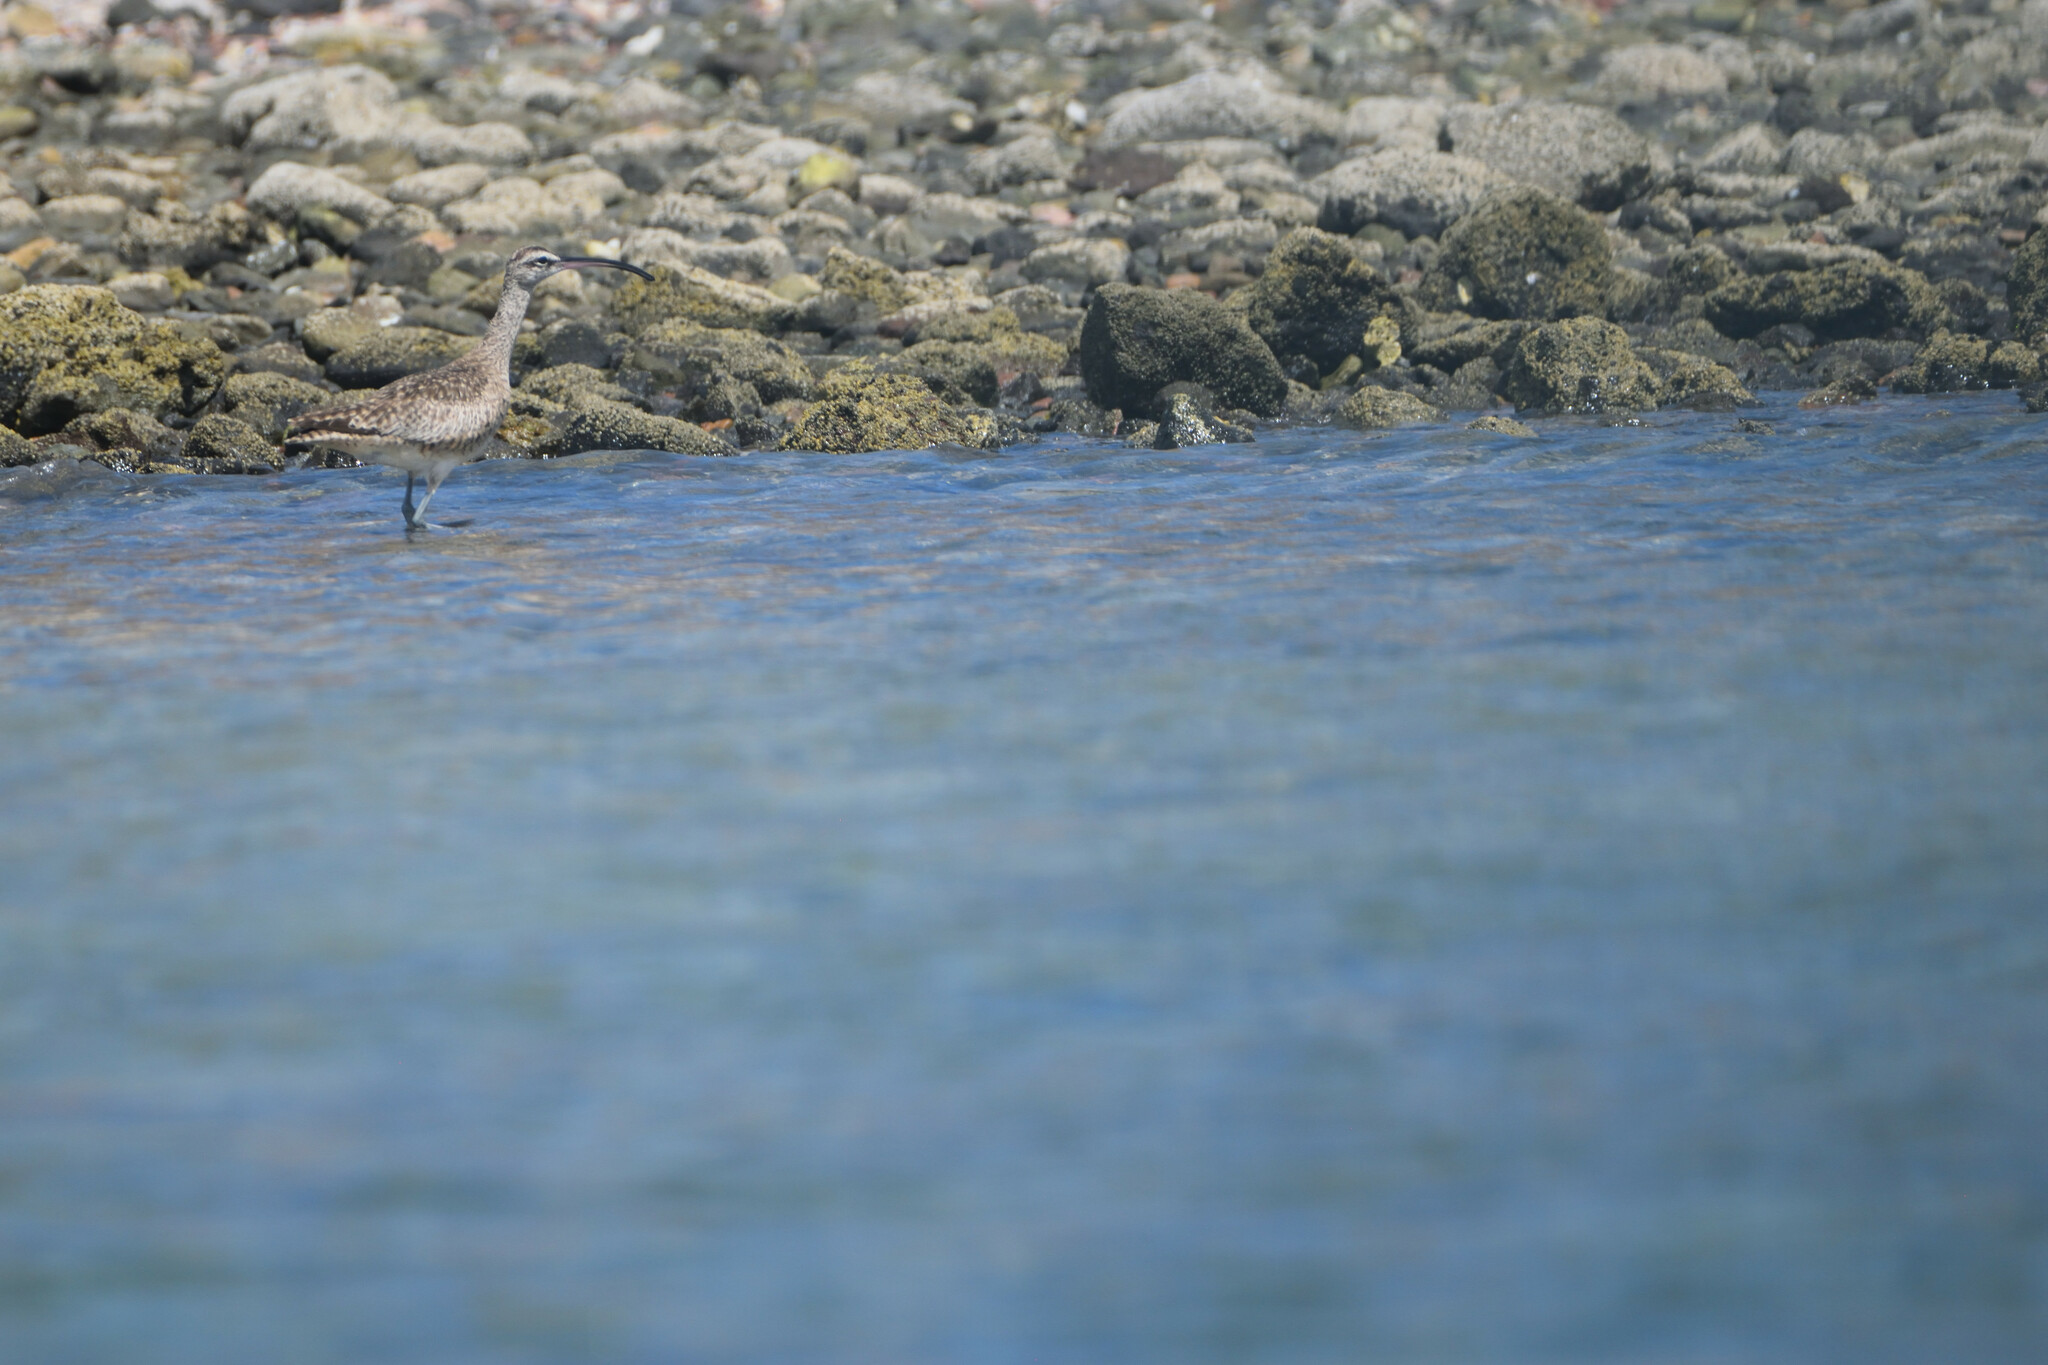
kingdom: Animalia
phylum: Chordata
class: Aves
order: Charadriiformes
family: Scolopacidae
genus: Numenius
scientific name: Numenius phaeopus
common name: Whimbrel
